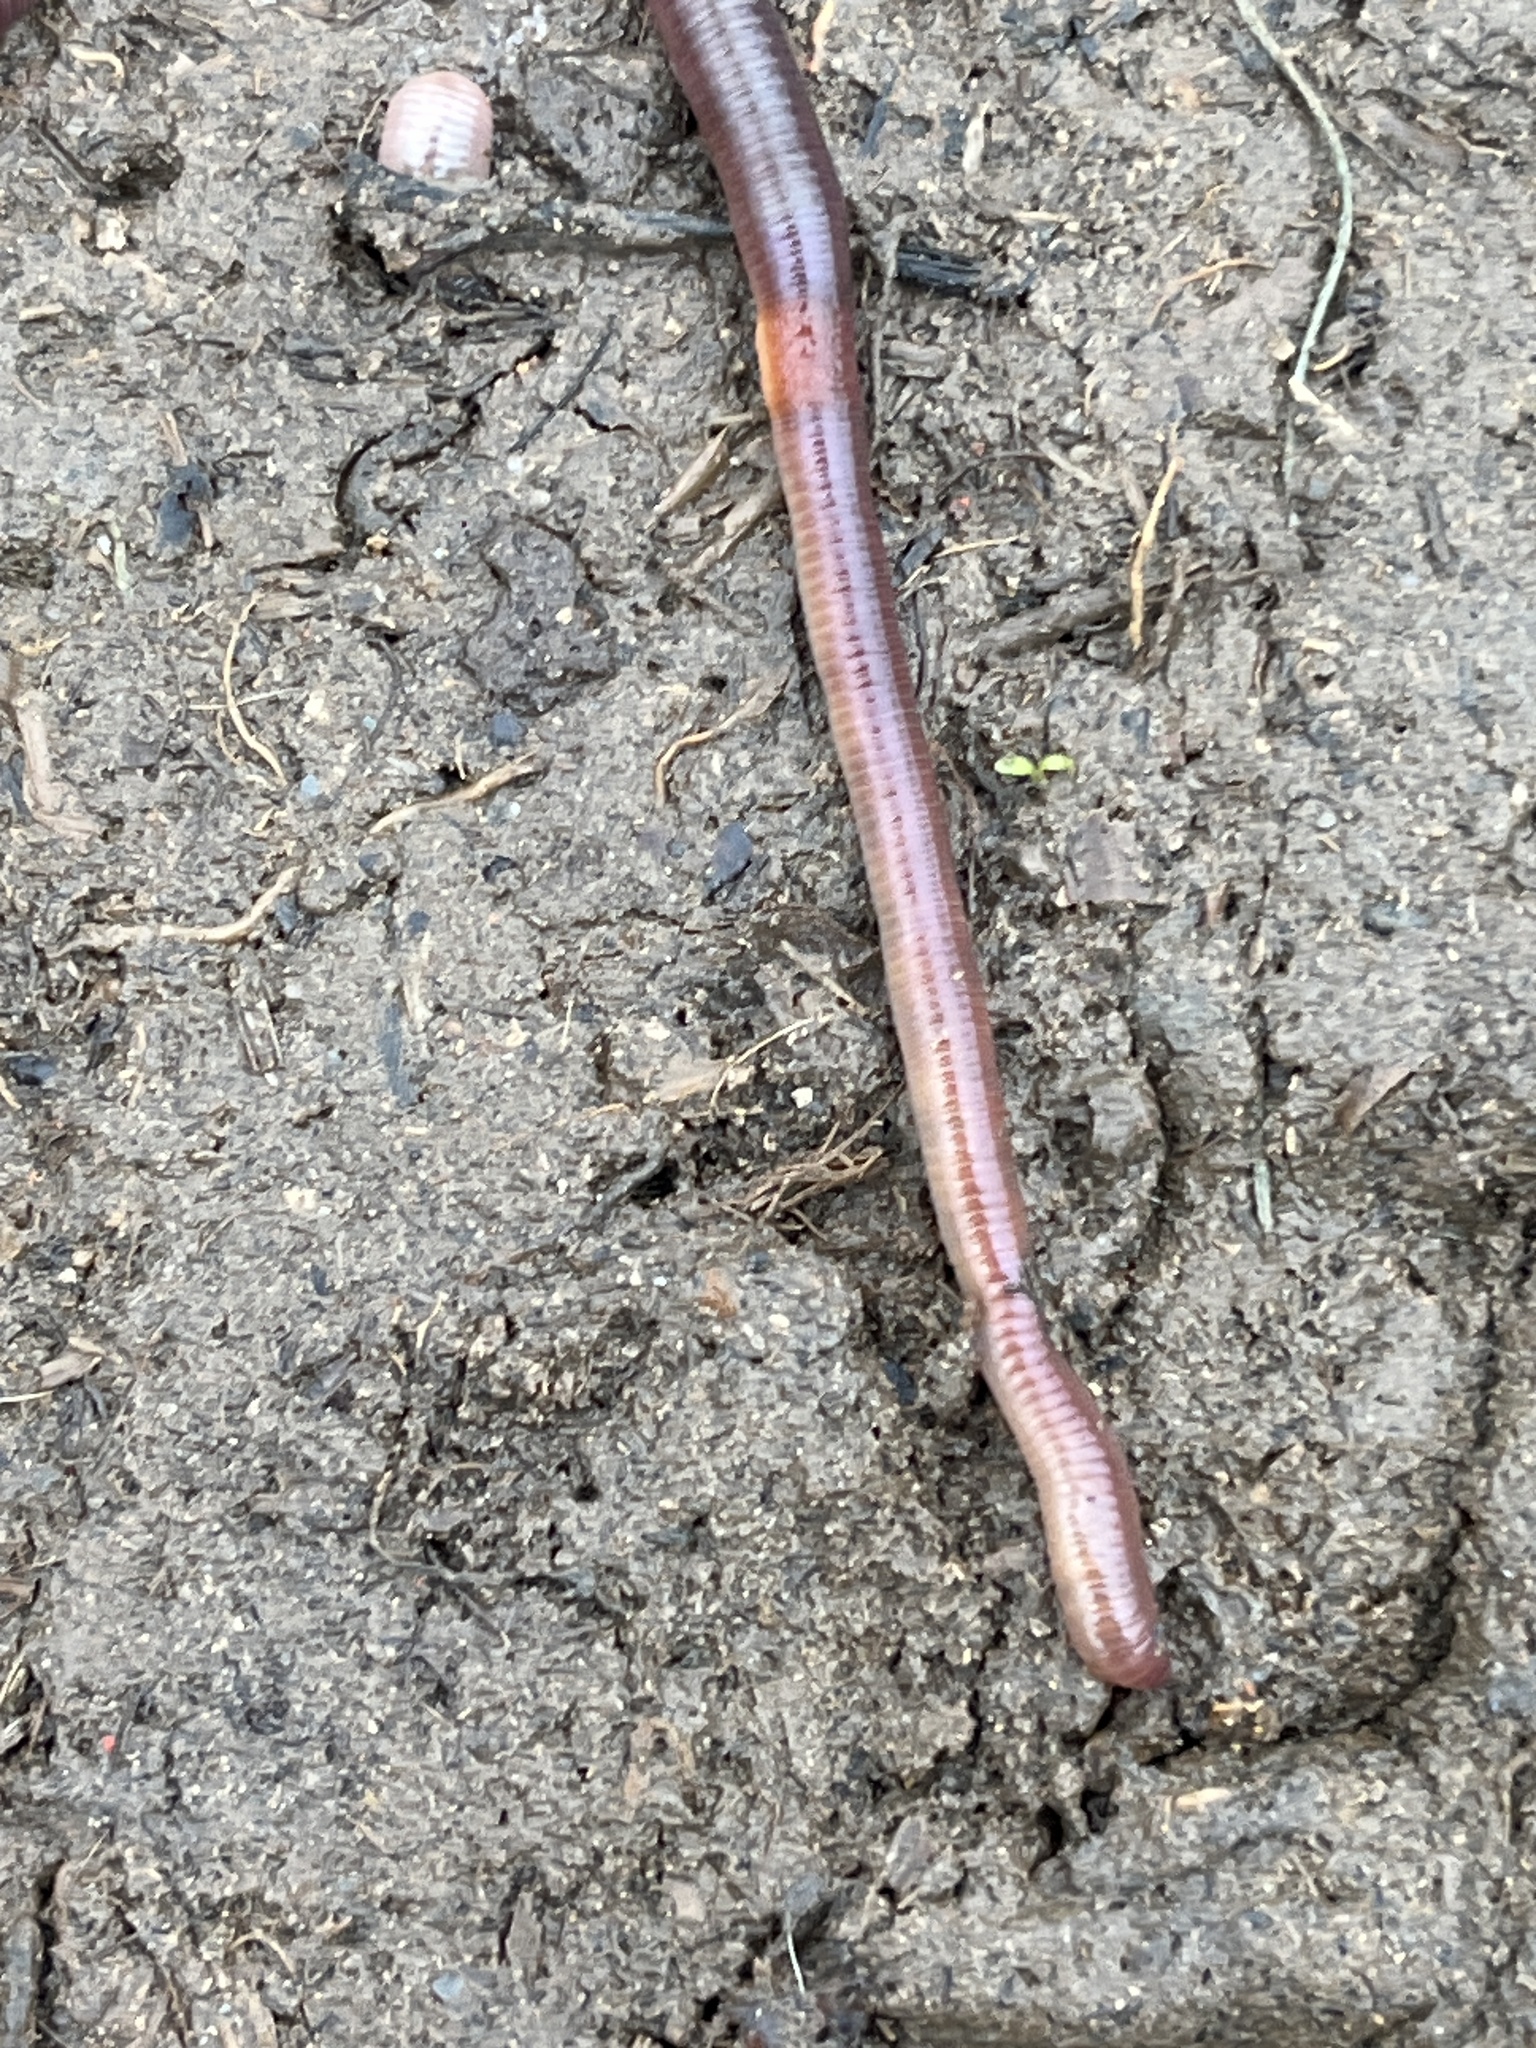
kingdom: Animalia
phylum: Annelida
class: Clitellata
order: Crassiclitellata
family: Lumbricidae
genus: Lumbricus
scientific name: Lumbricus terrestris
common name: Common earthworm
